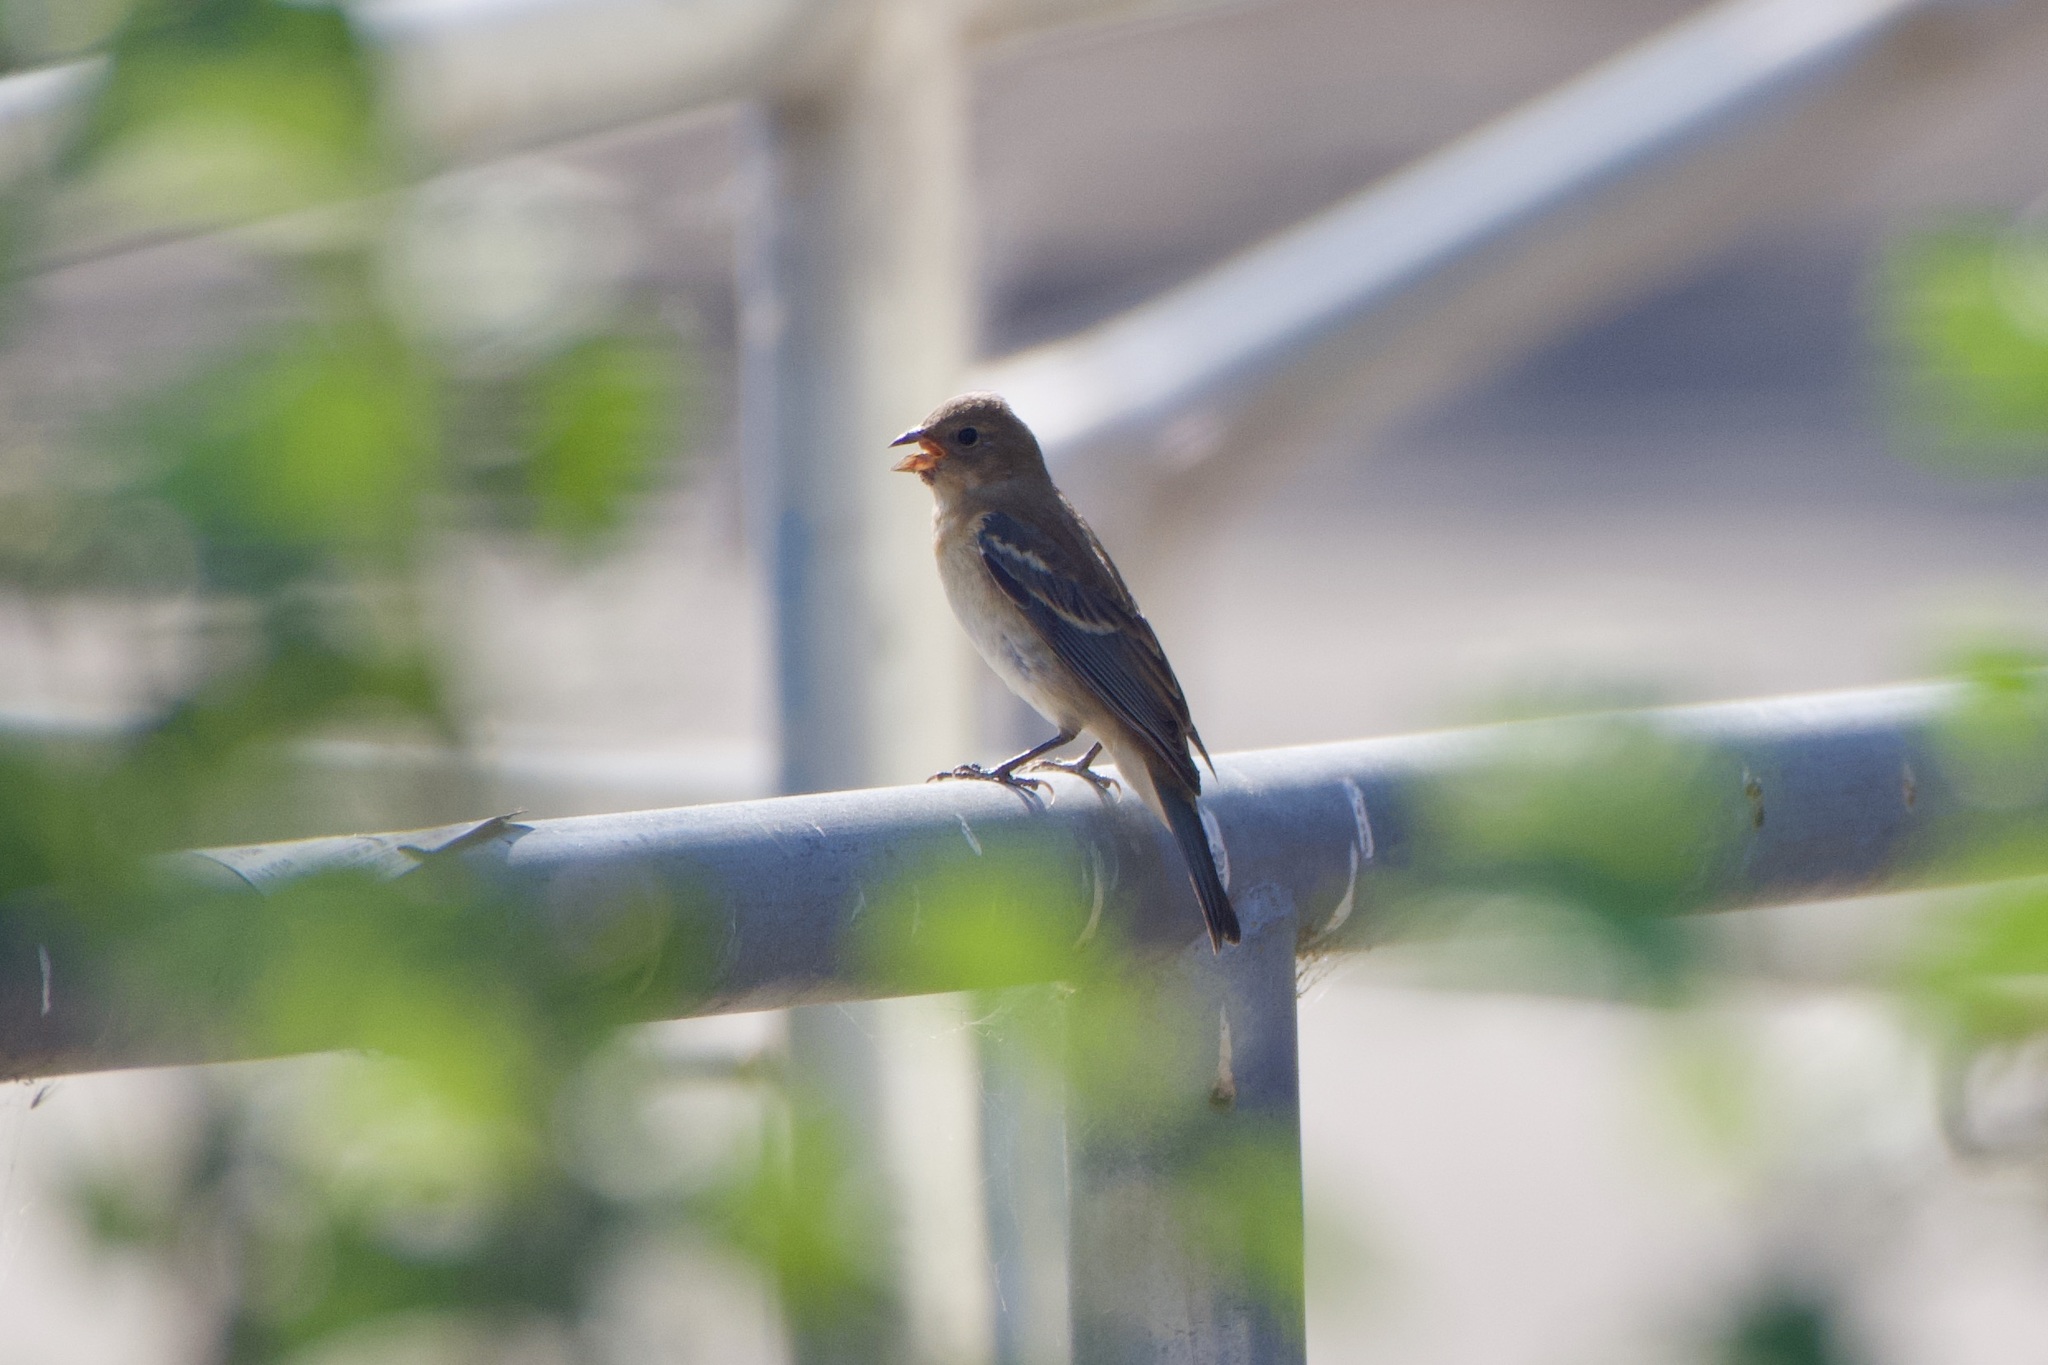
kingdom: Animalia
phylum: Chordata
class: Aves
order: Passeriformes
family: Cardinalidae
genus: Passerina
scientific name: Passerina amoena
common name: Lazuli bunting
